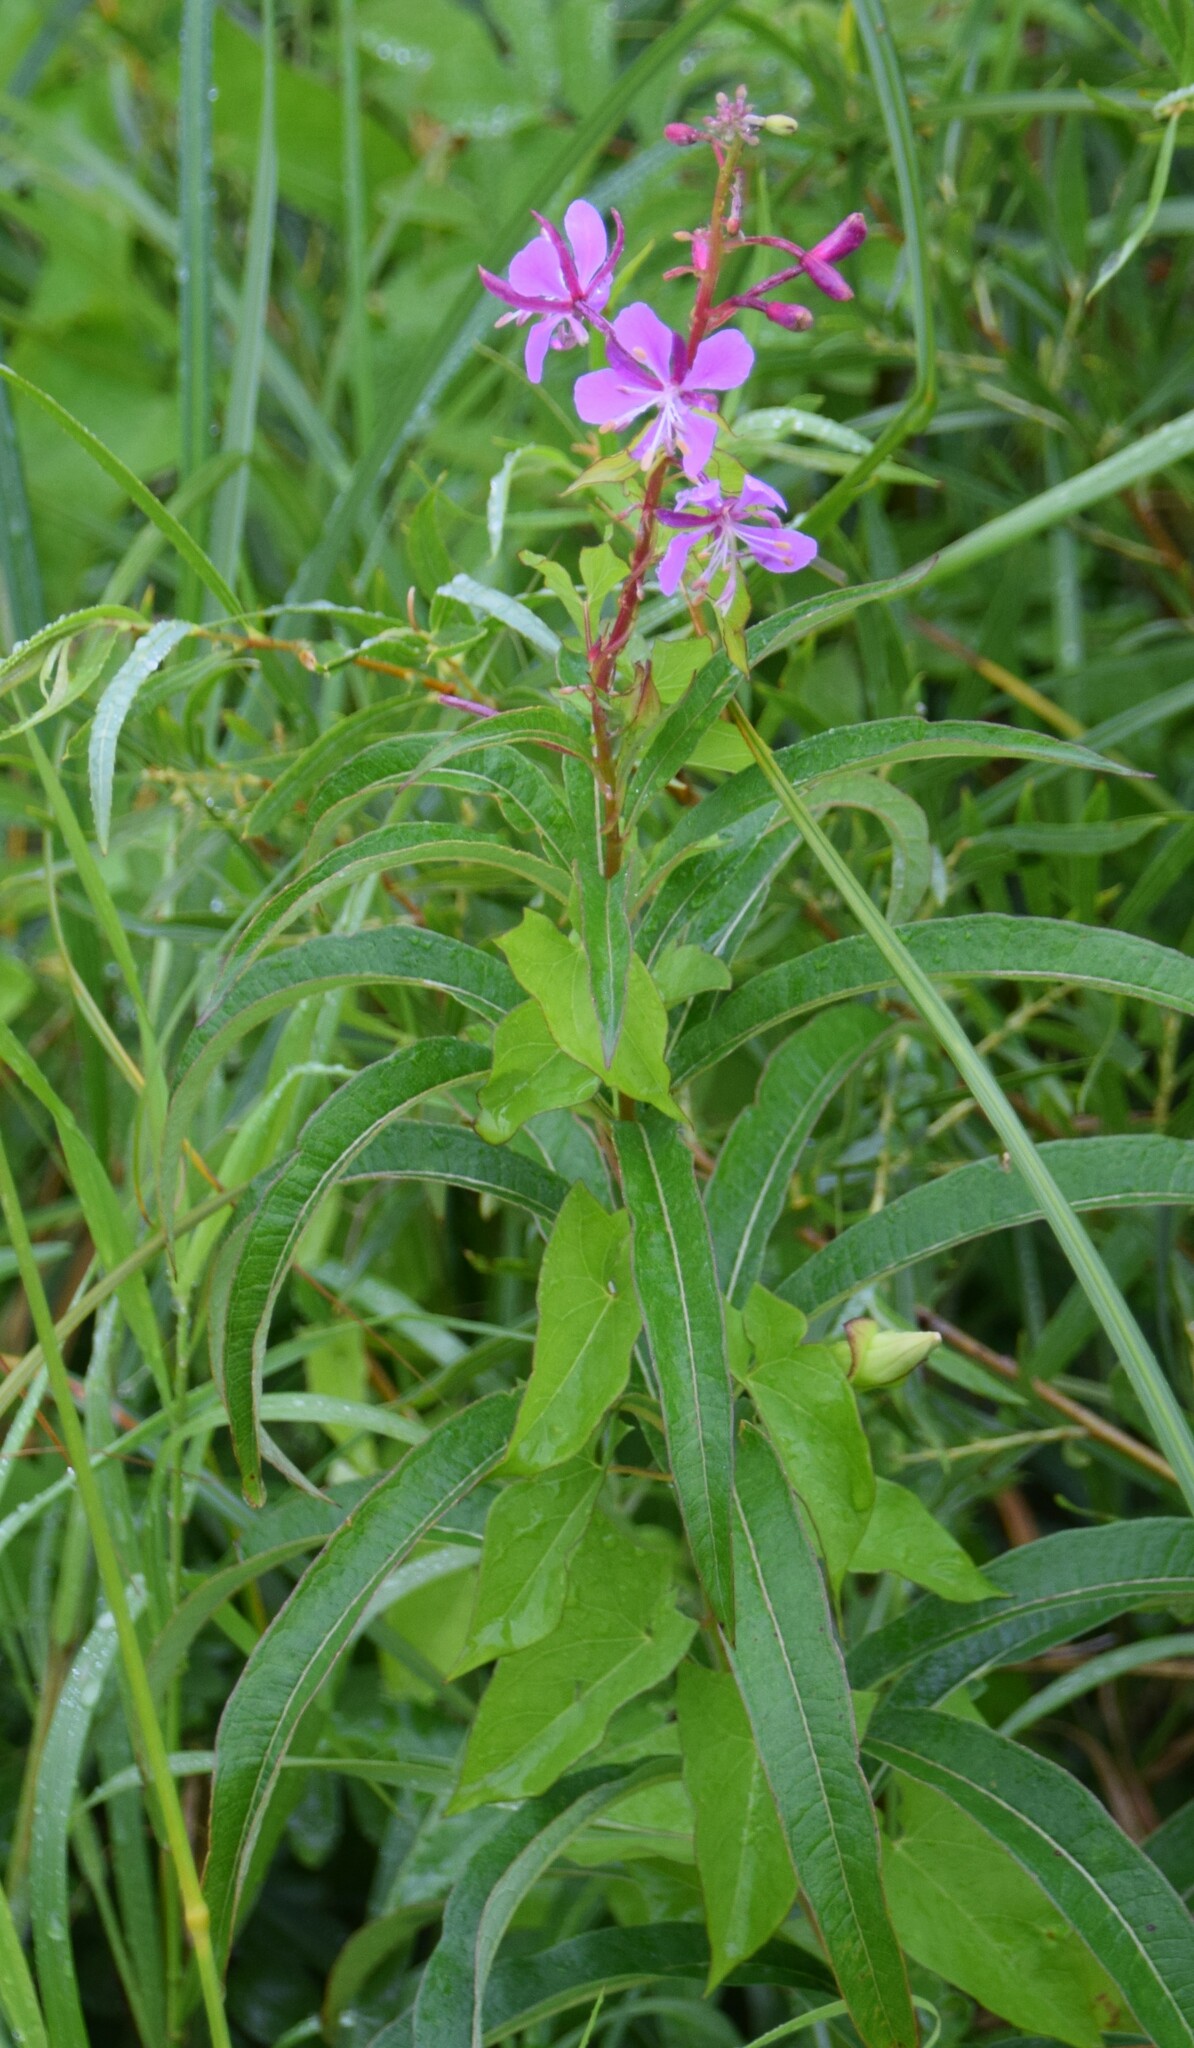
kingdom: Plantae
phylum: Tracheophyta
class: Magnoliopsida
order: Myrtales
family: Onagraceae
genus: Chamaenerion
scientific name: Chamaenerion angustifolium
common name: Fireweed
